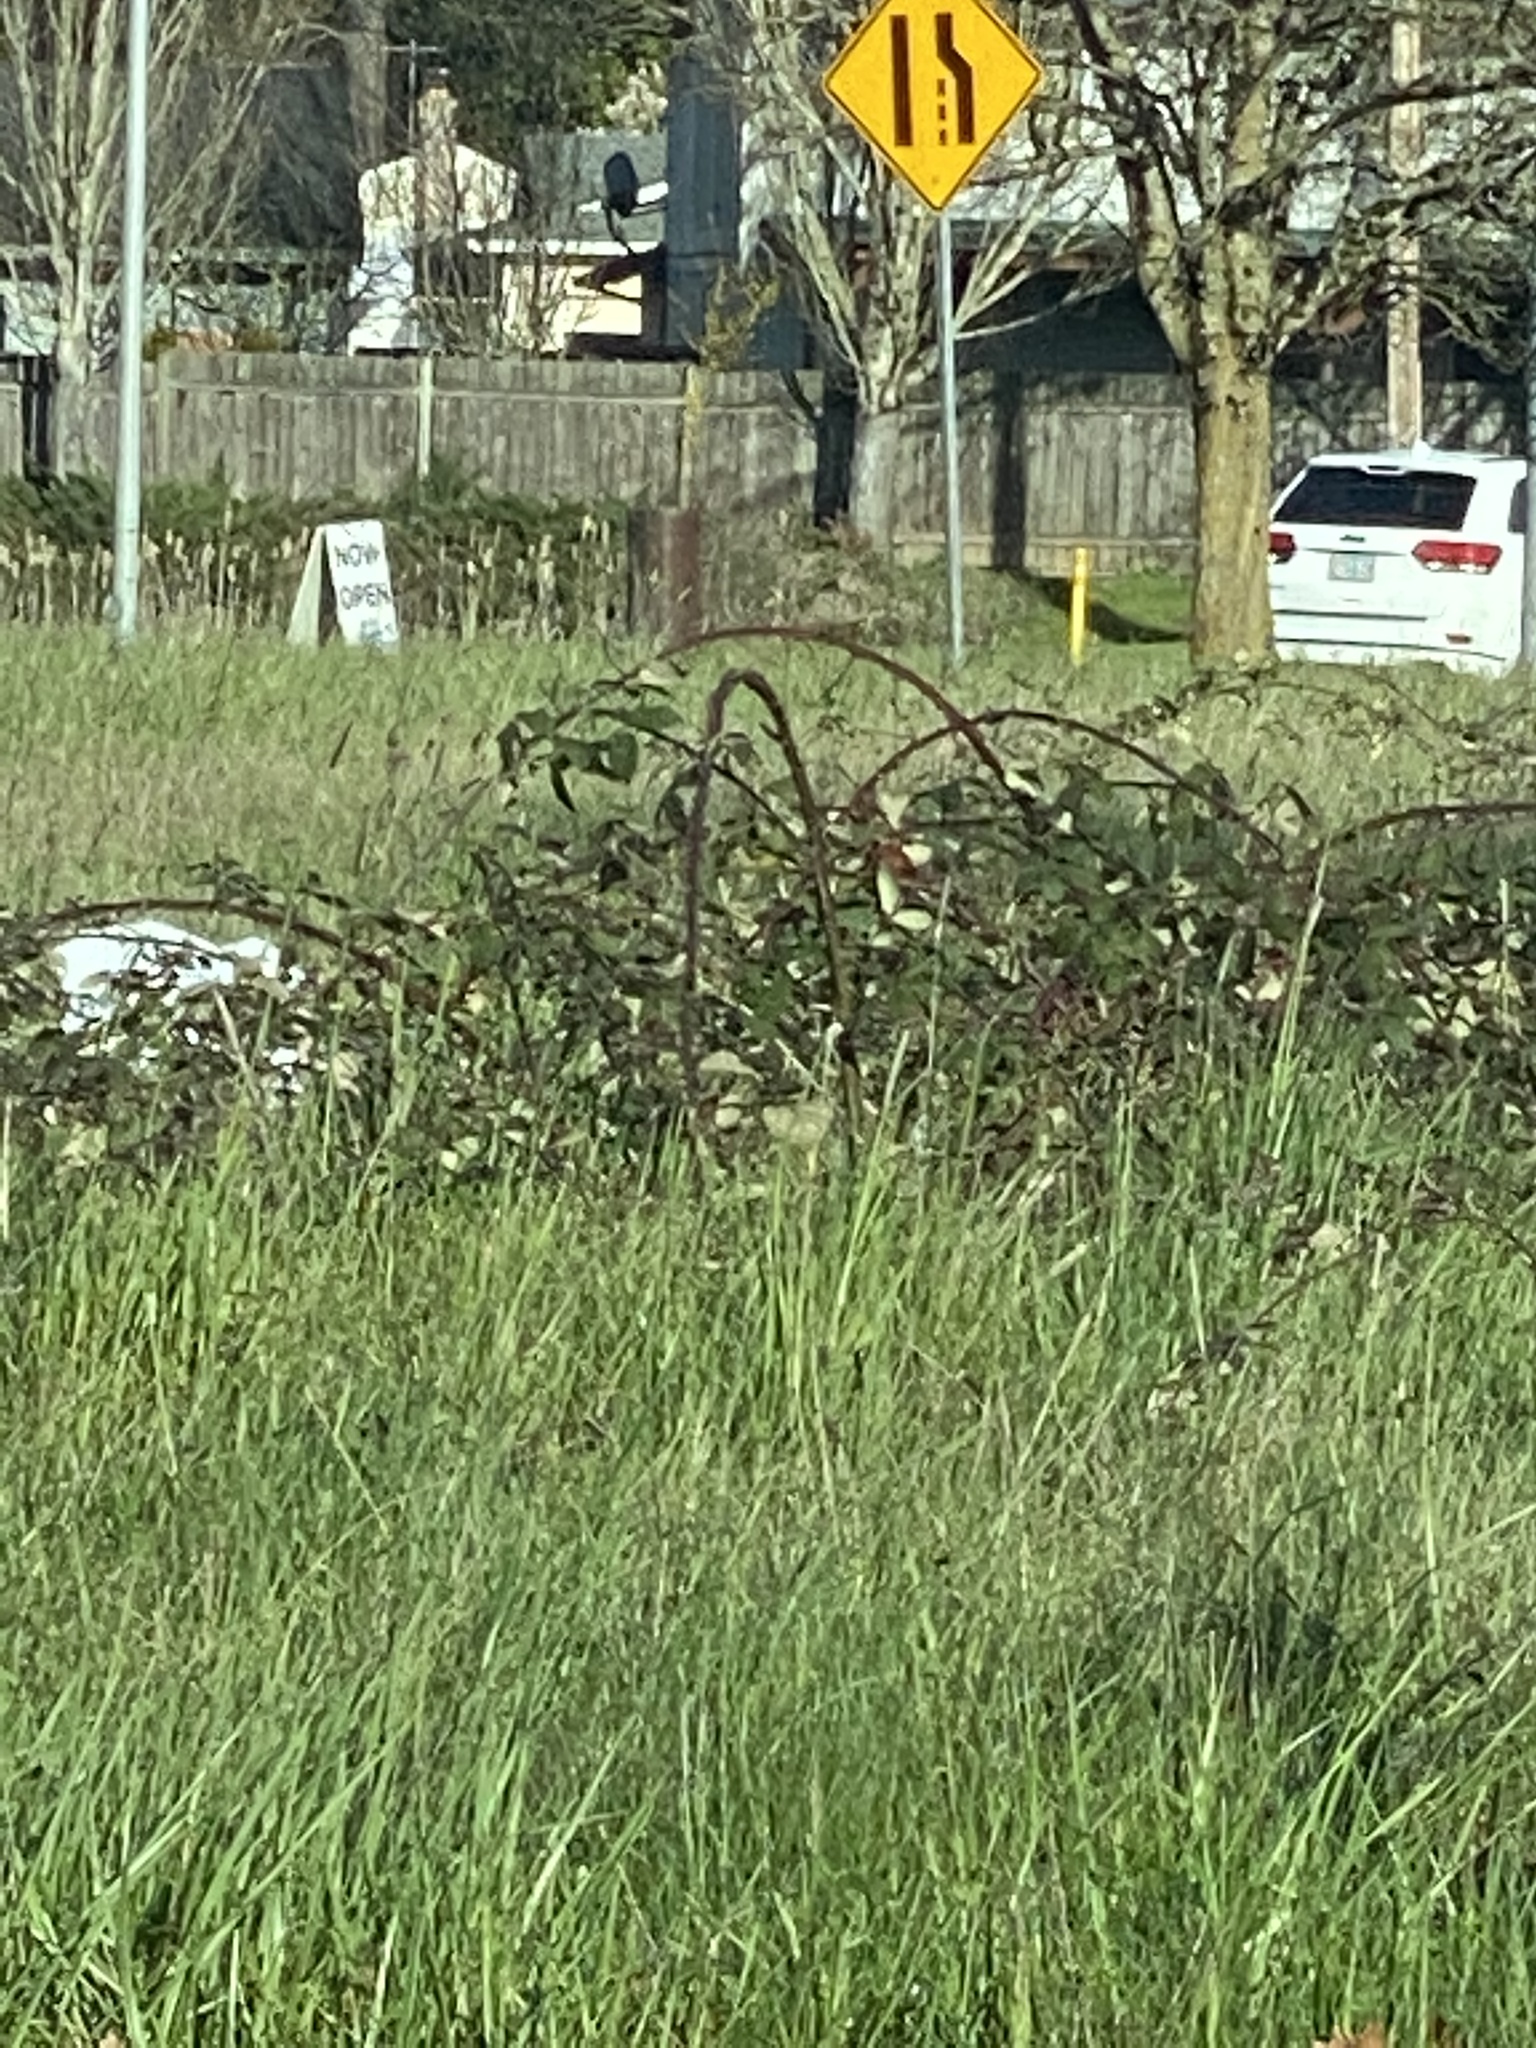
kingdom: Plantae
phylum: Tracheophyta
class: Magnoliopsida
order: Rosales
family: Rosaceae
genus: Rubus
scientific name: Rubus armeniacus
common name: Himalayan blackberry
